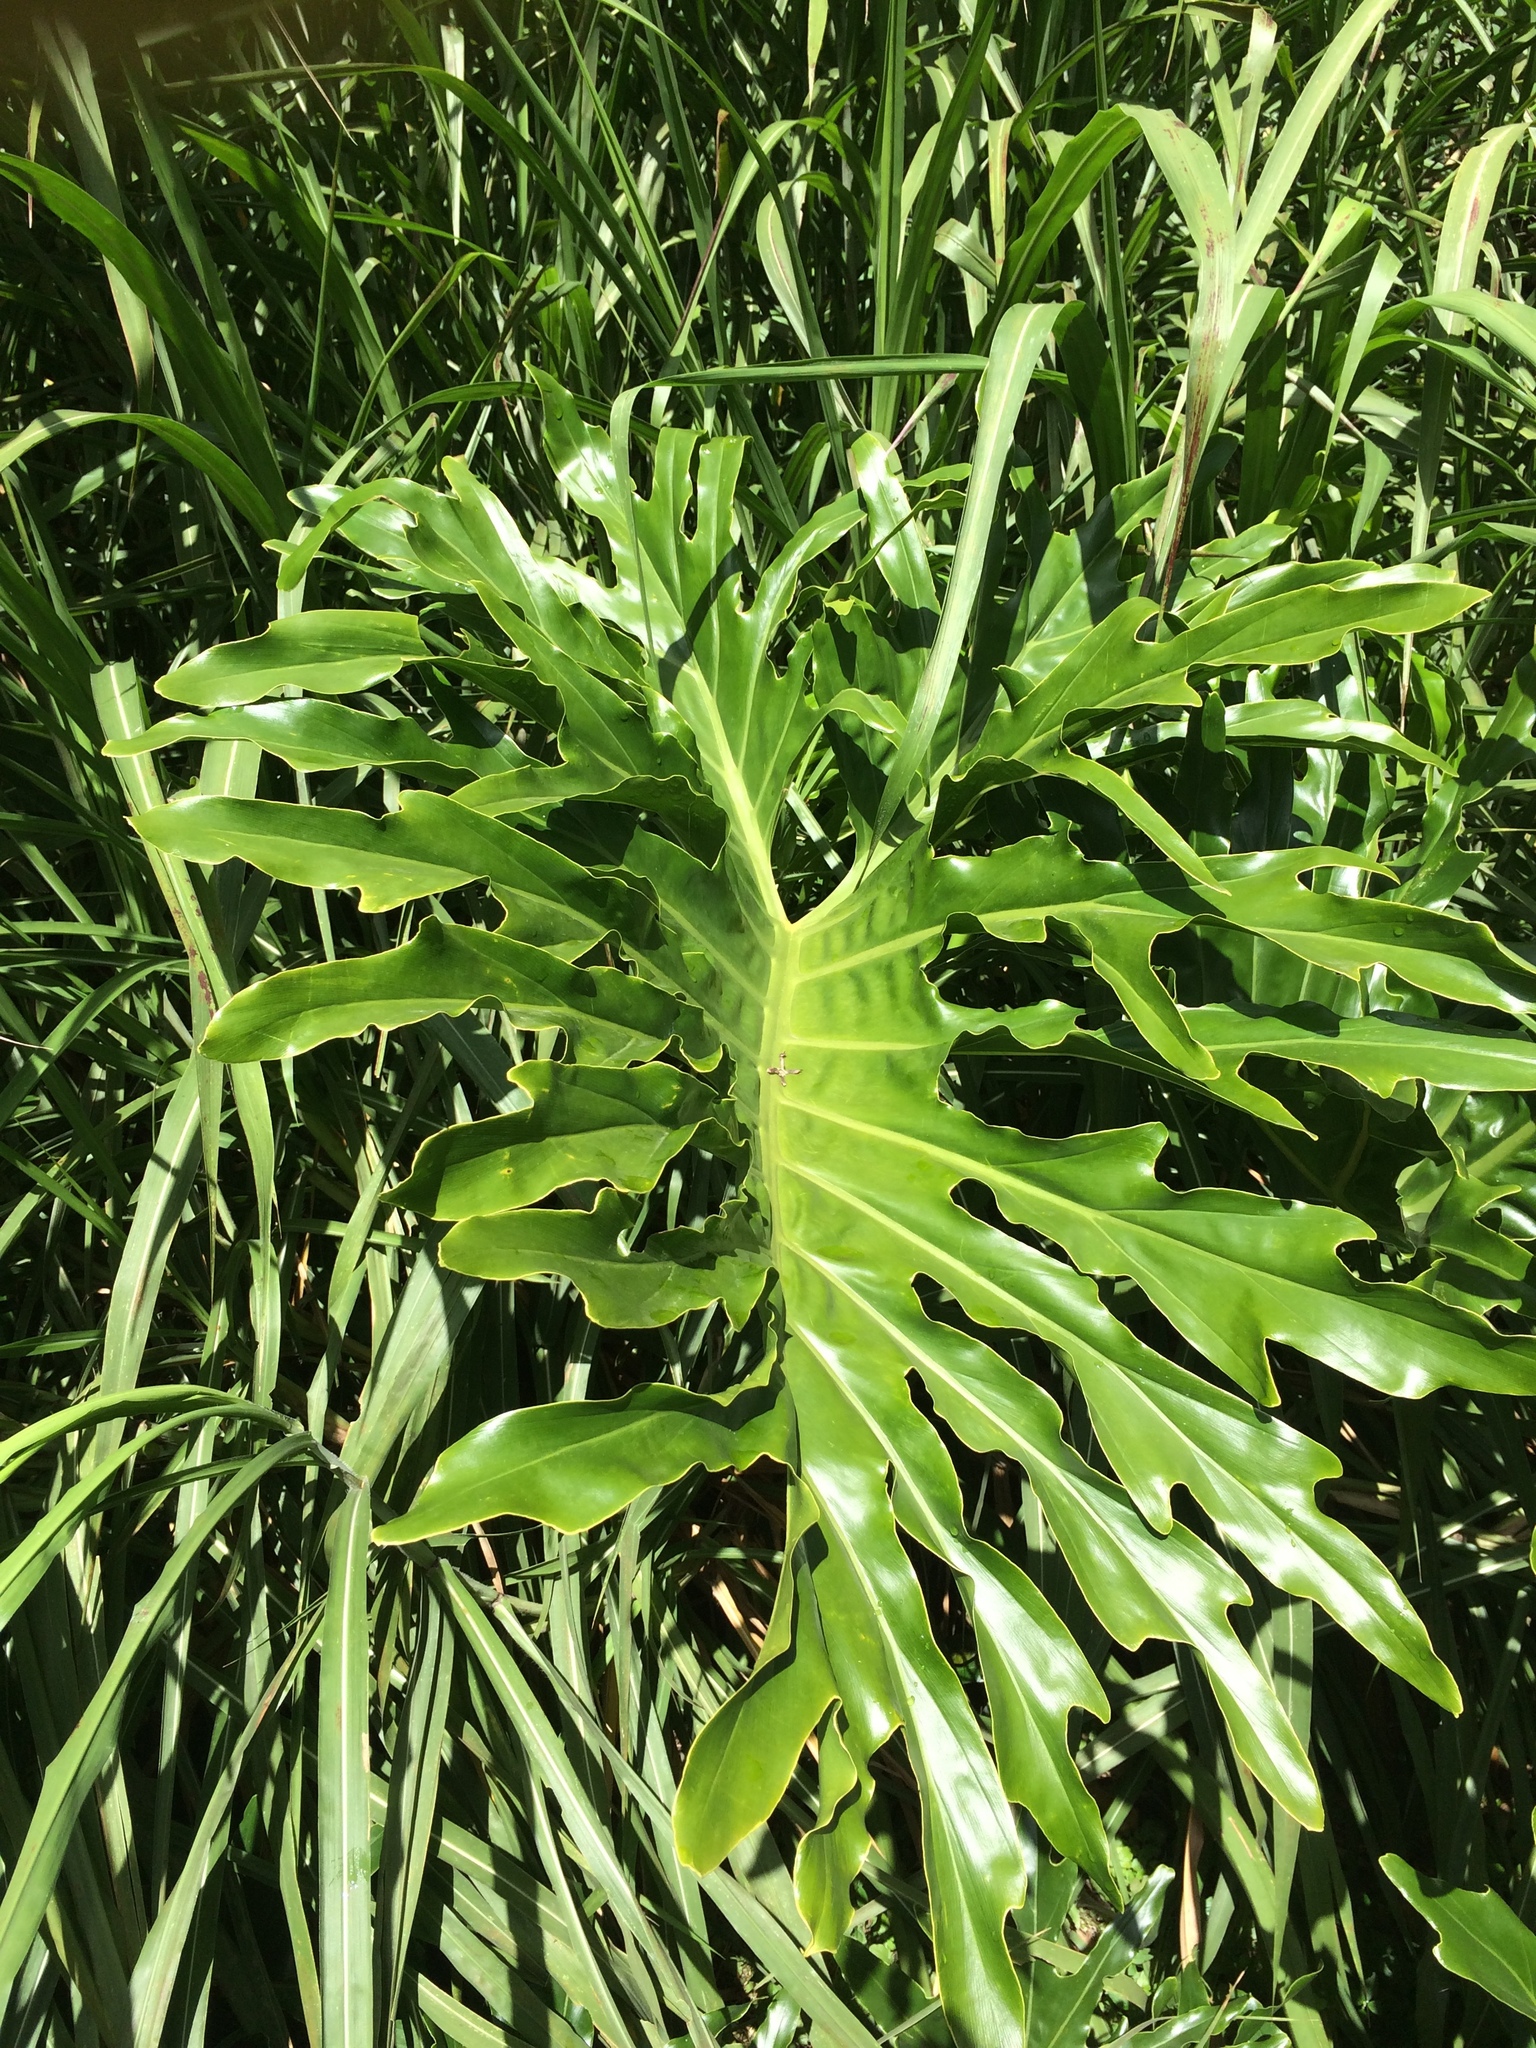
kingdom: Plantae
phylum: Tracheophyta
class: Liliopsida
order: Alismatales
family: Araceae
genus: Thaumatophyllum
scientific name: Thaumatophyllum bipinnatifidum
